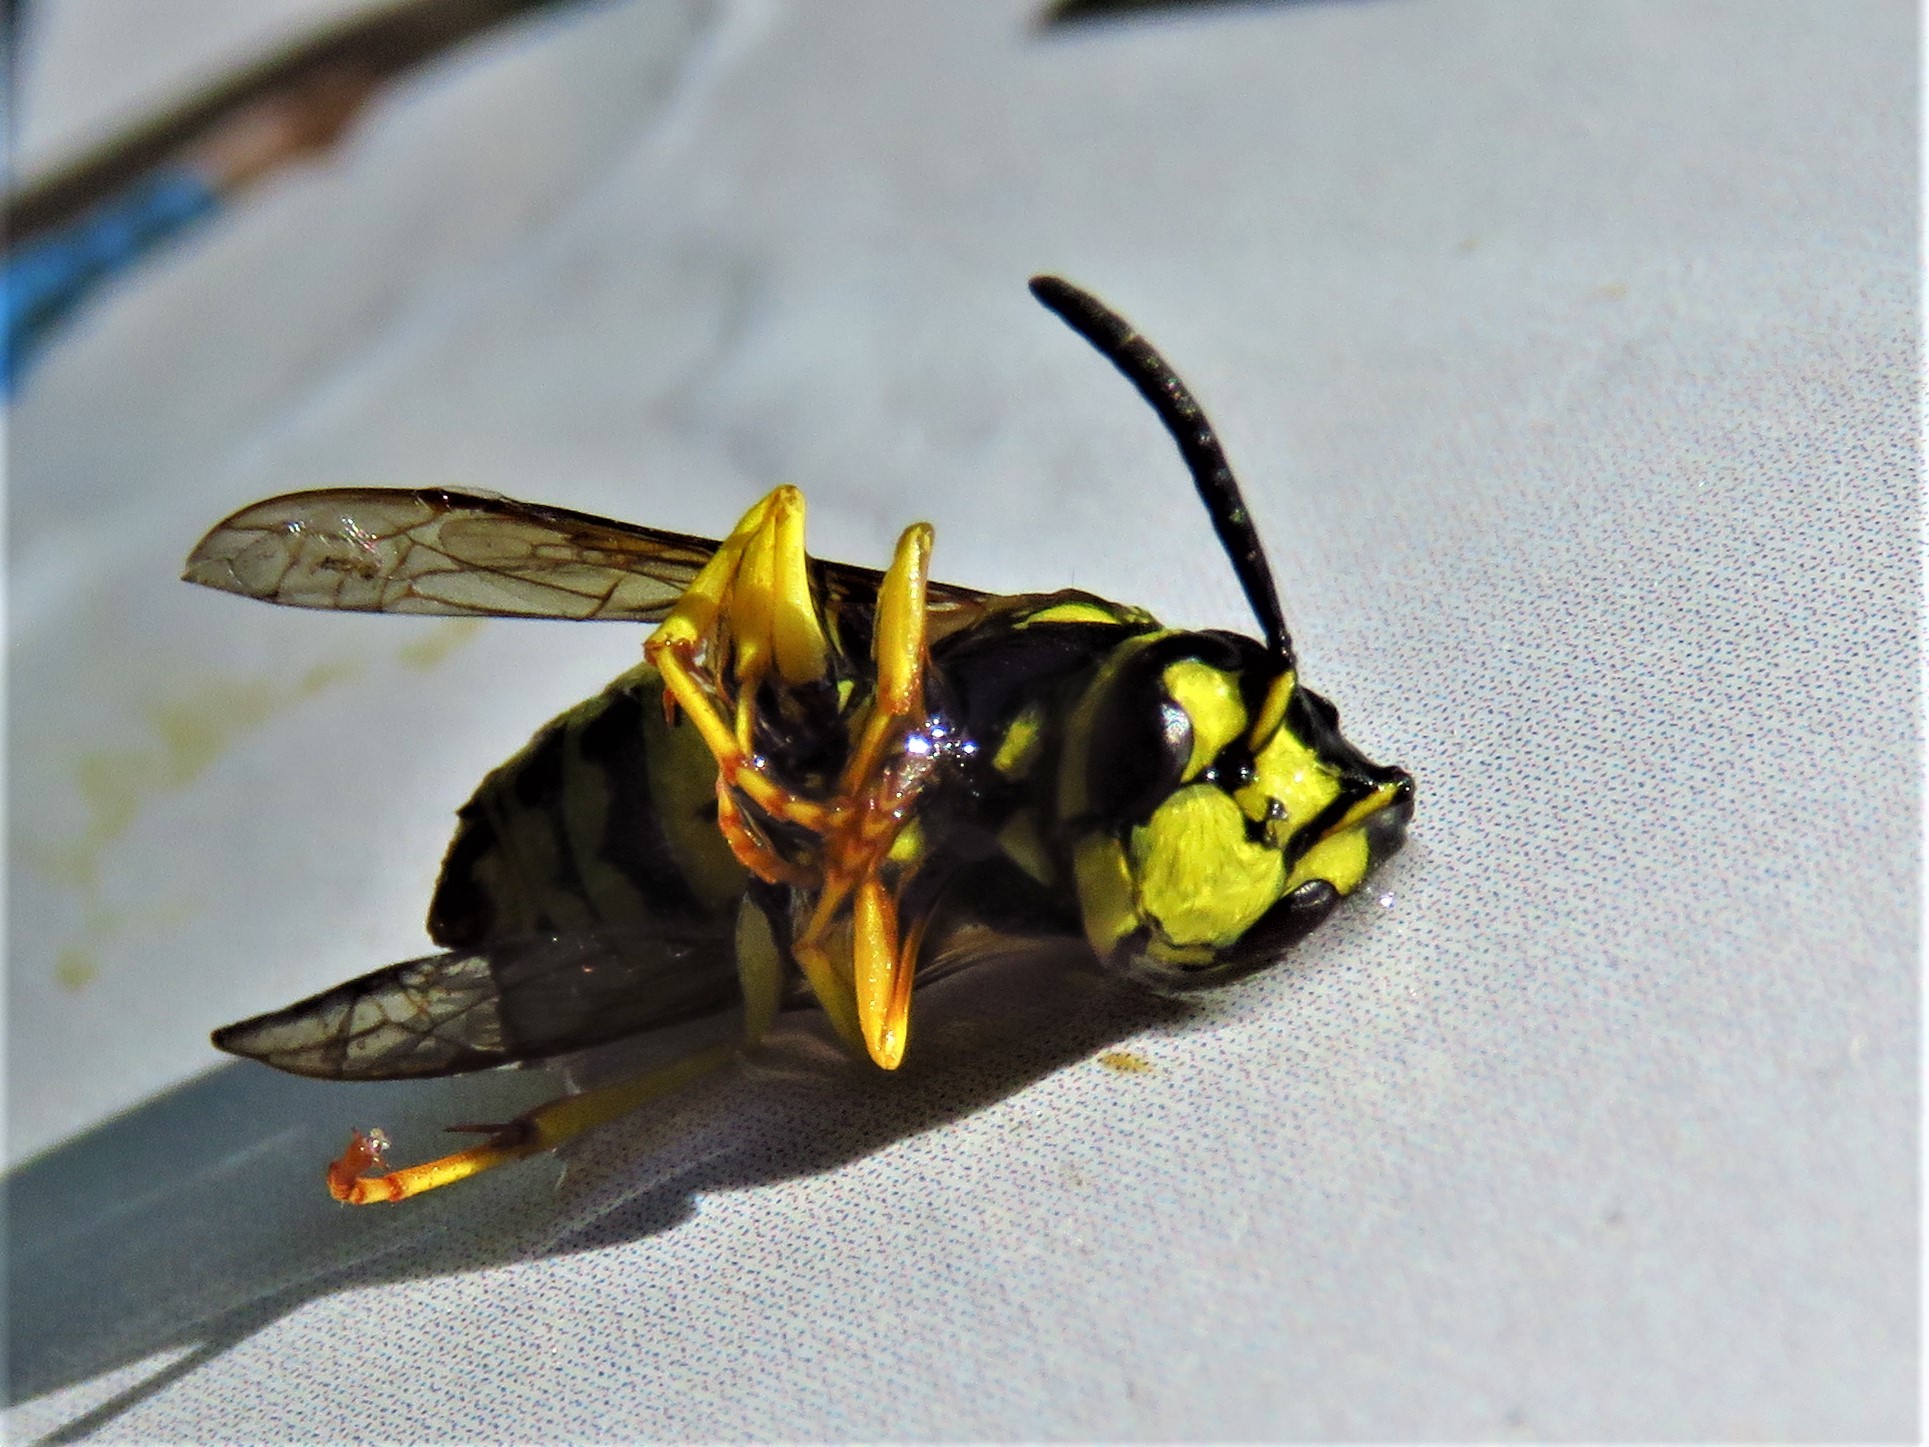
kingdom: Animalia
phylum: Arthropoda
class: Insecta
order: Hymenoptera
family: Vespidae
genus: Vespula
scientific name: Vespula maculifrons
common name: Eastern yellowjacket
